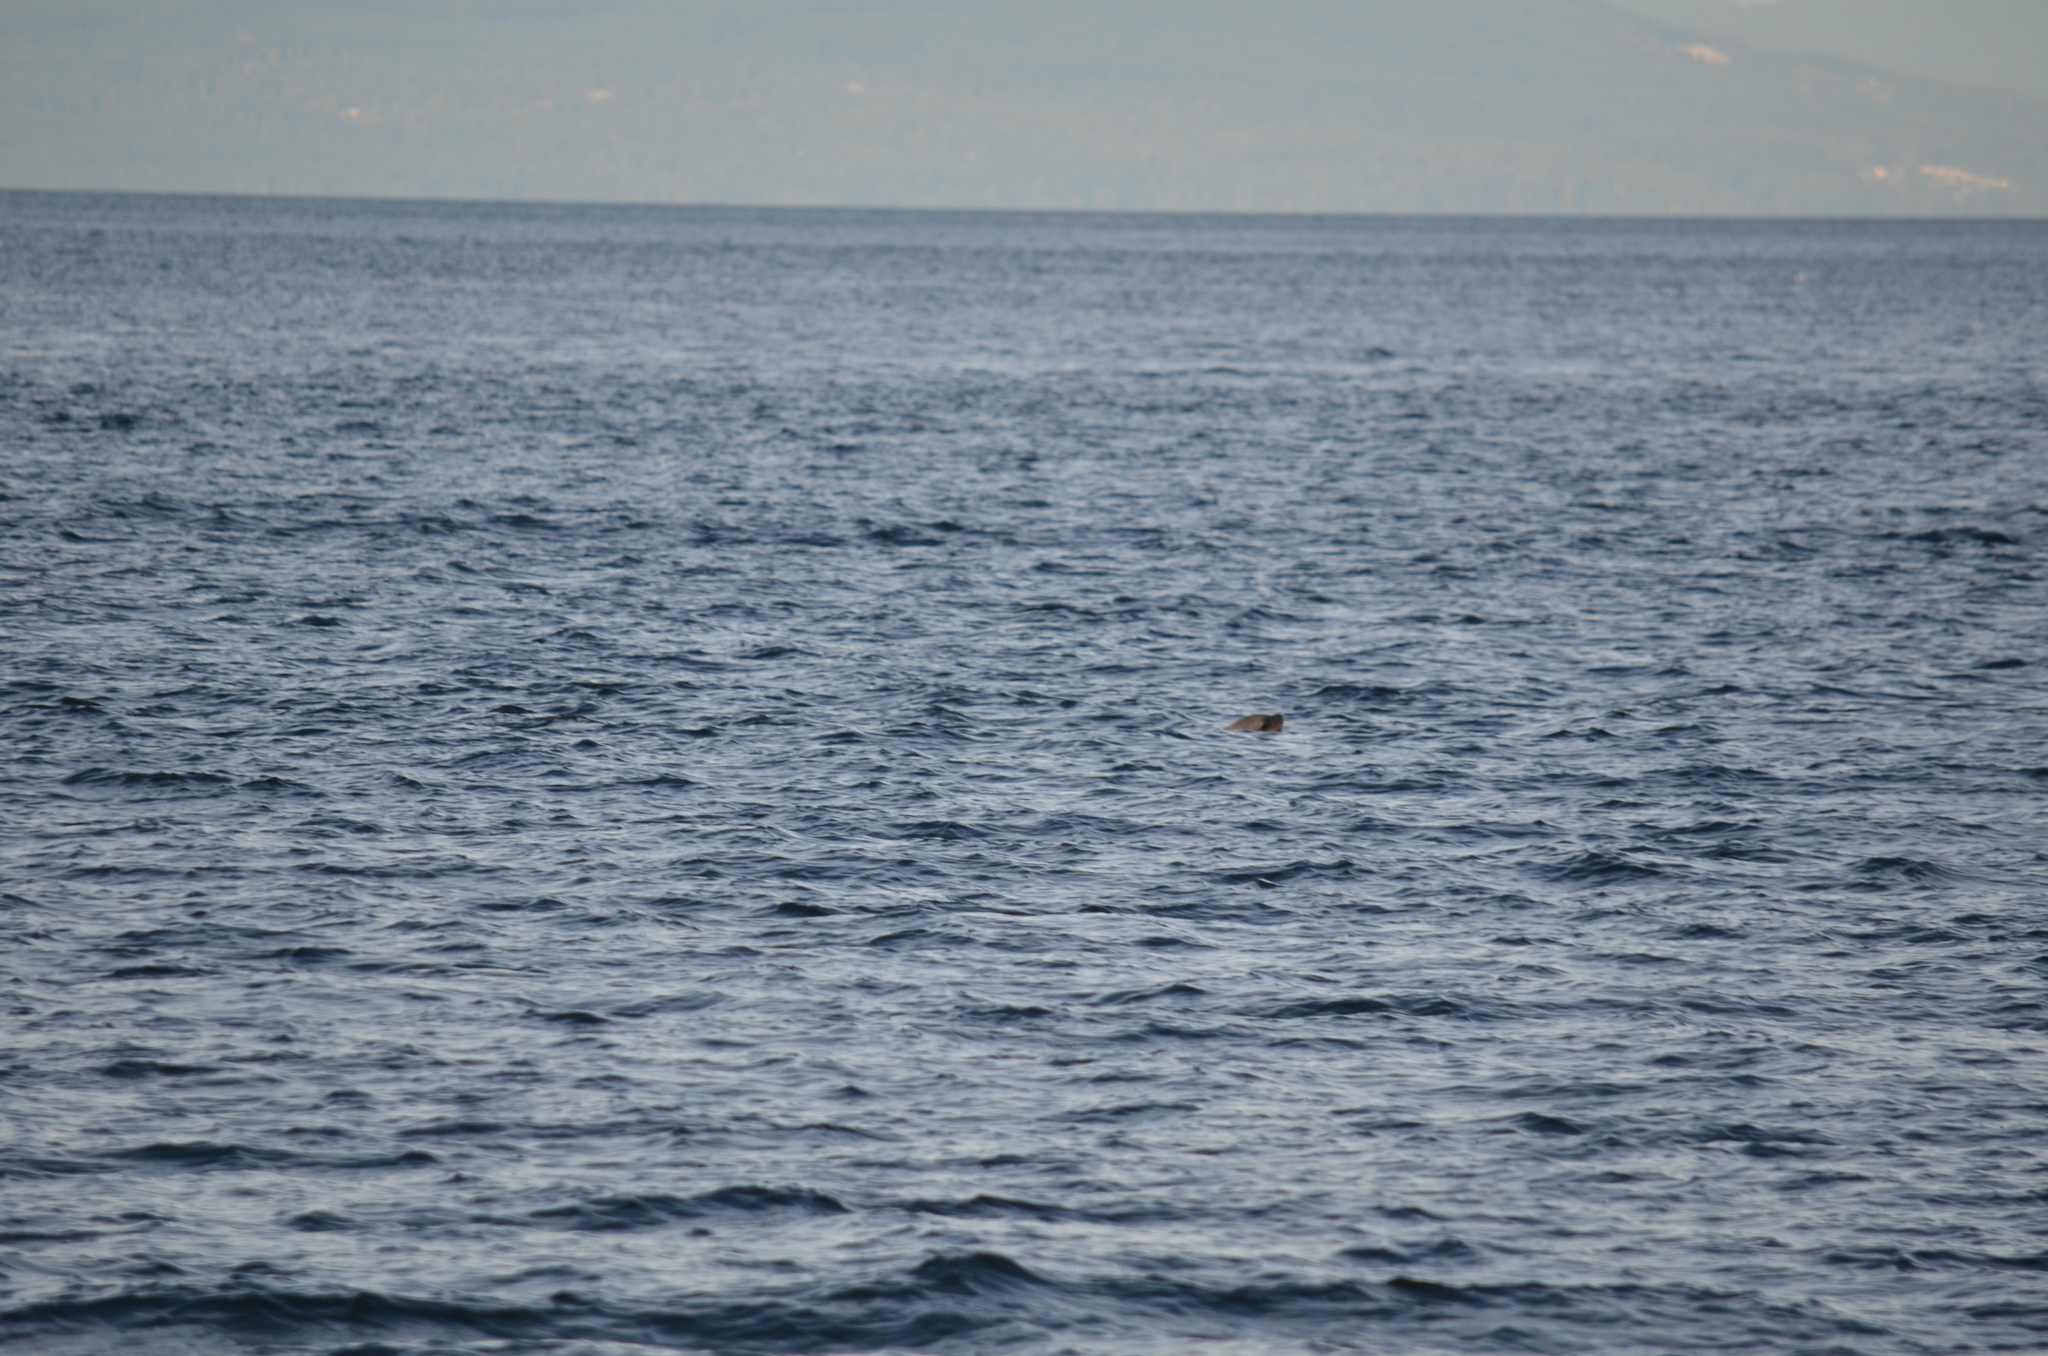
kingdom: Animalia
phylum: Chordata
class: Mammalia
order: Carnivora
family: Otariidae
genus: Eumetopias
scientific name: Eumetopias jubatus
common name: Steller sea lion
